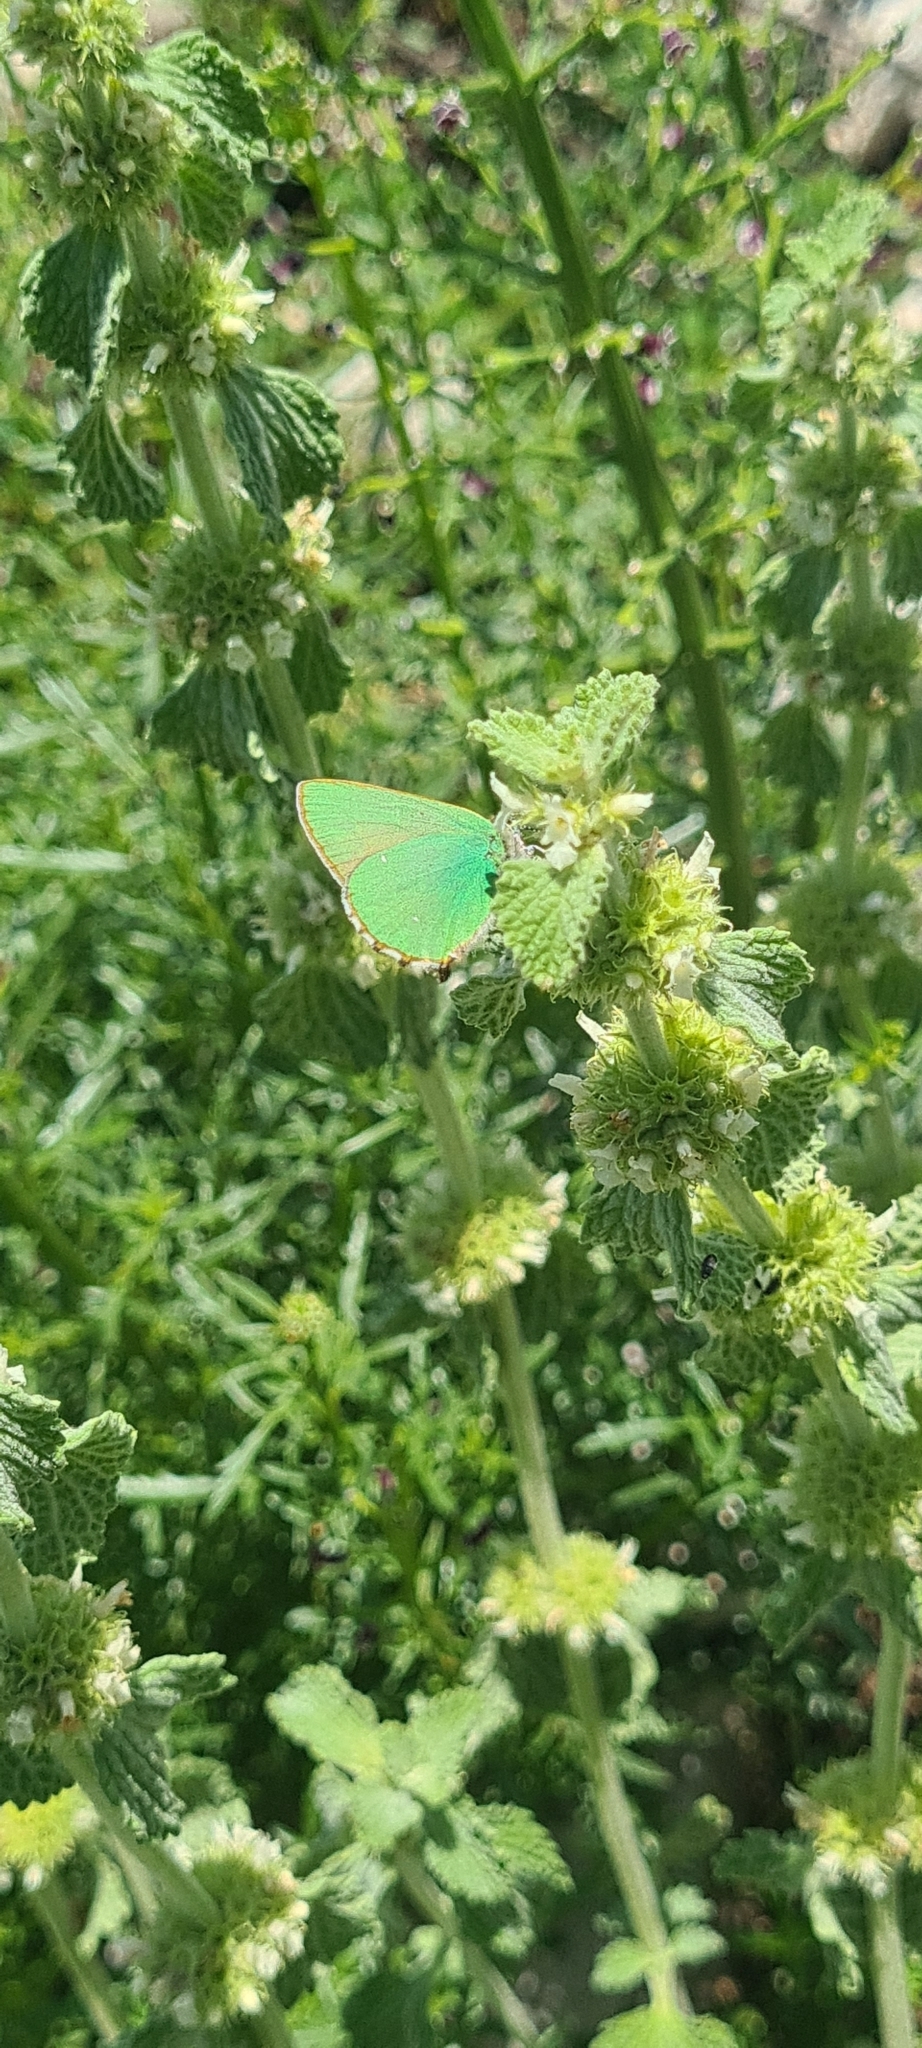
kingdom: Animalia
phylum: Arthropoda
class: Insecta
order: Lepidoptera
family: Lycaenidae
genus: Callophrys
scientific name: Callophrys rubi
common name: Green hairstreak
